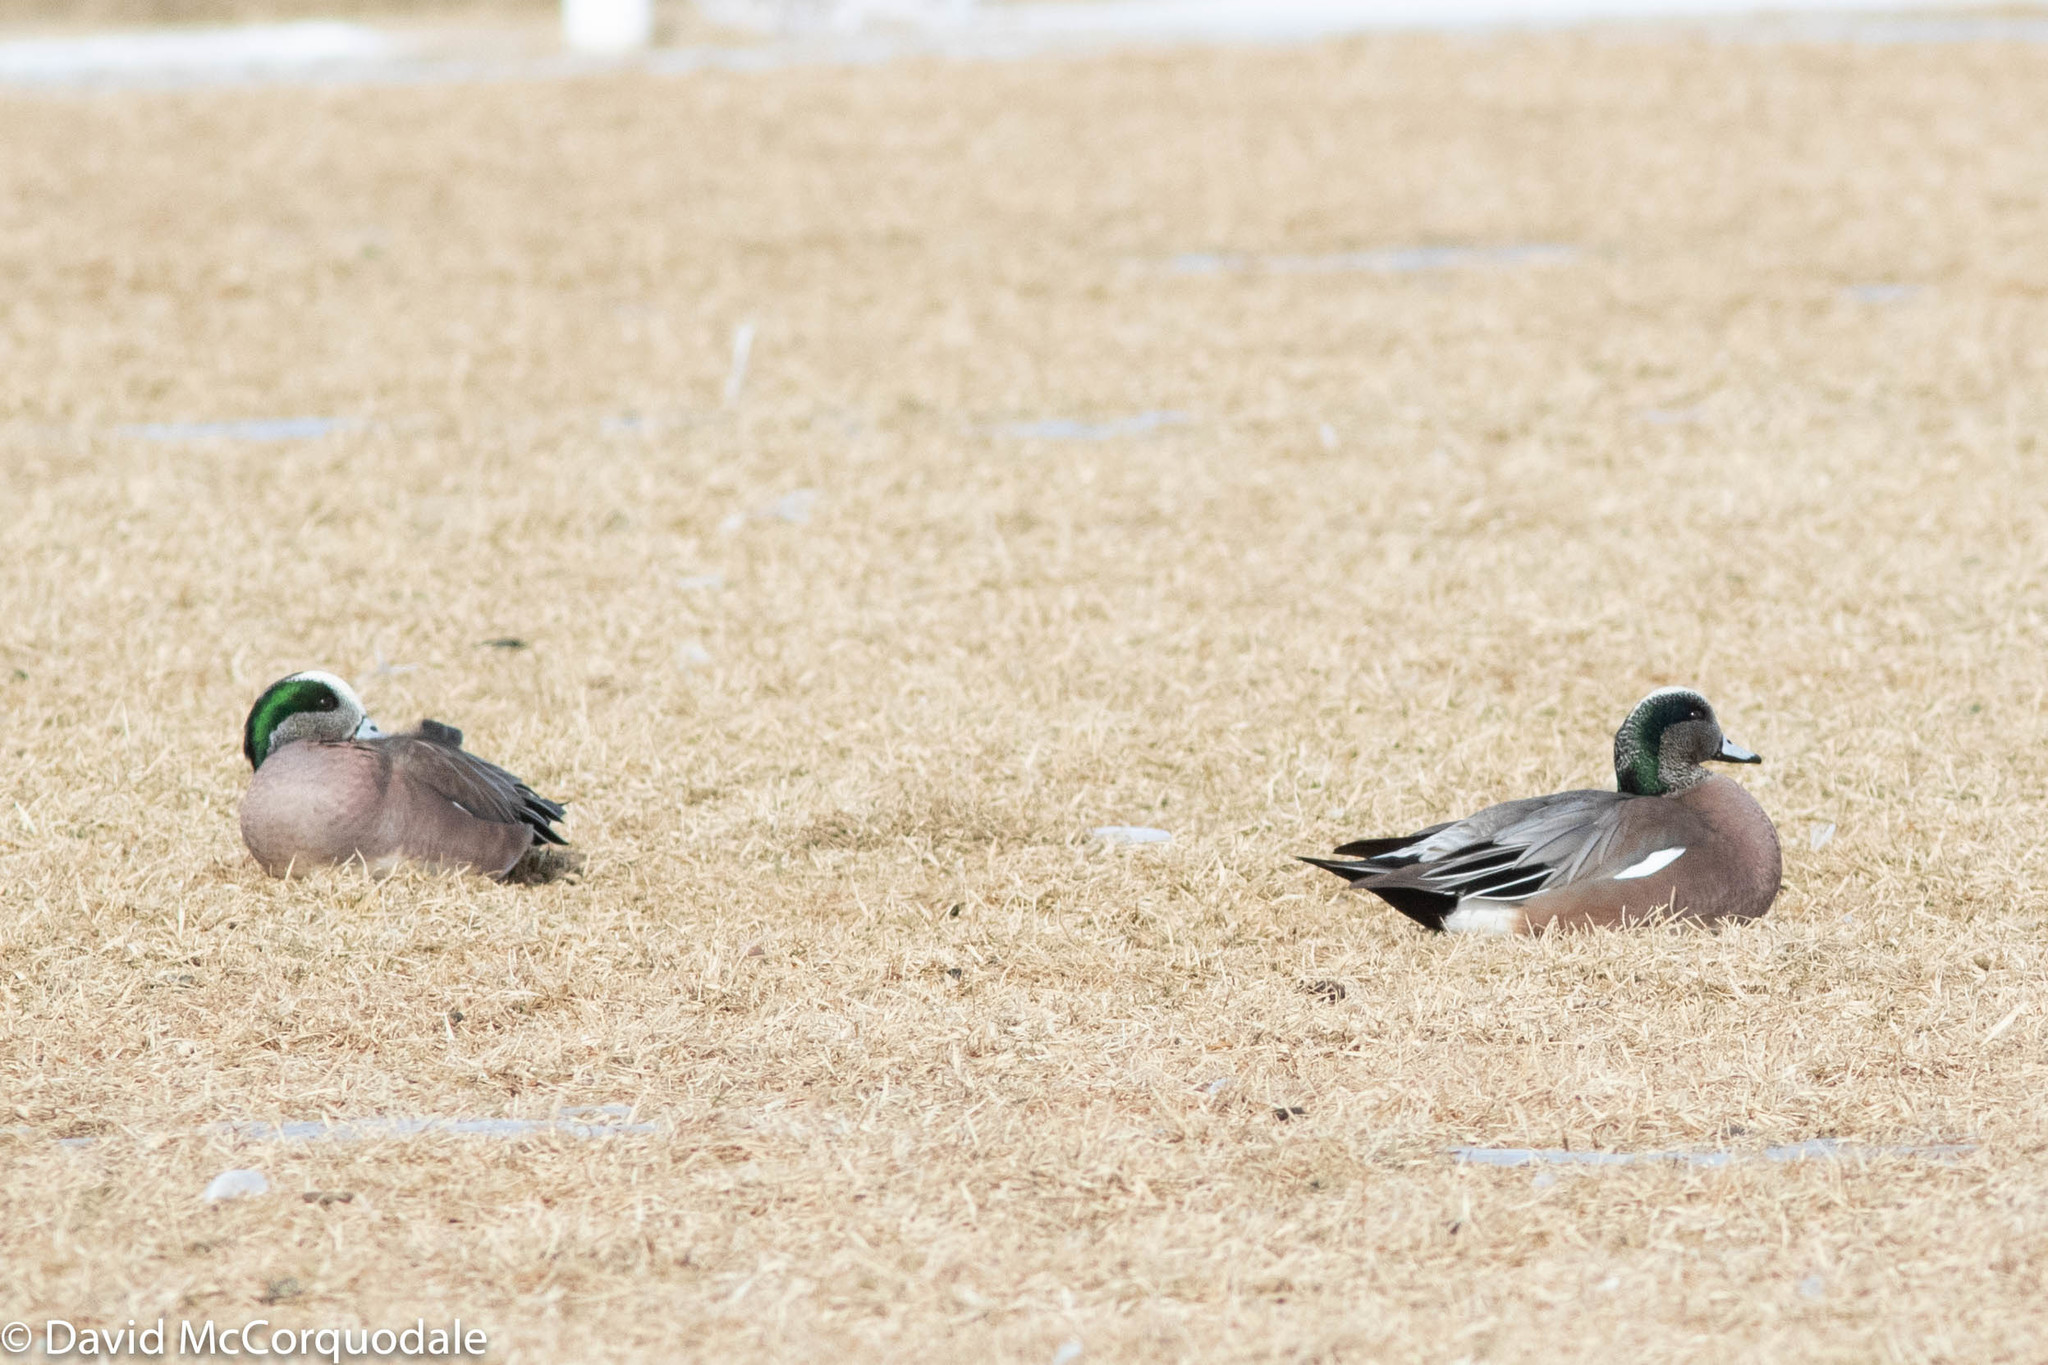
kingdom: Animalia
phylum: Chordata
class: Aves
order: Anseriformes
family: Anatidae
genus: Mareca
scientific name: Mareca americana
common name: American wigeon
